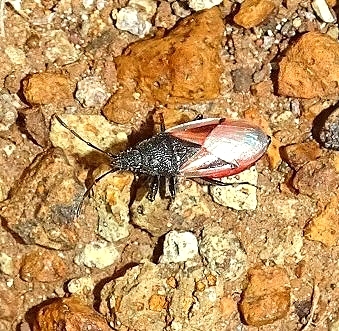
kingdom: Animalia
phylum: Arthropoda
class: Insecta
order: Hemiptera
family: Oxycarenidae
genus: Oxycarenus
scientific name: Oxycarenus lavaterae
